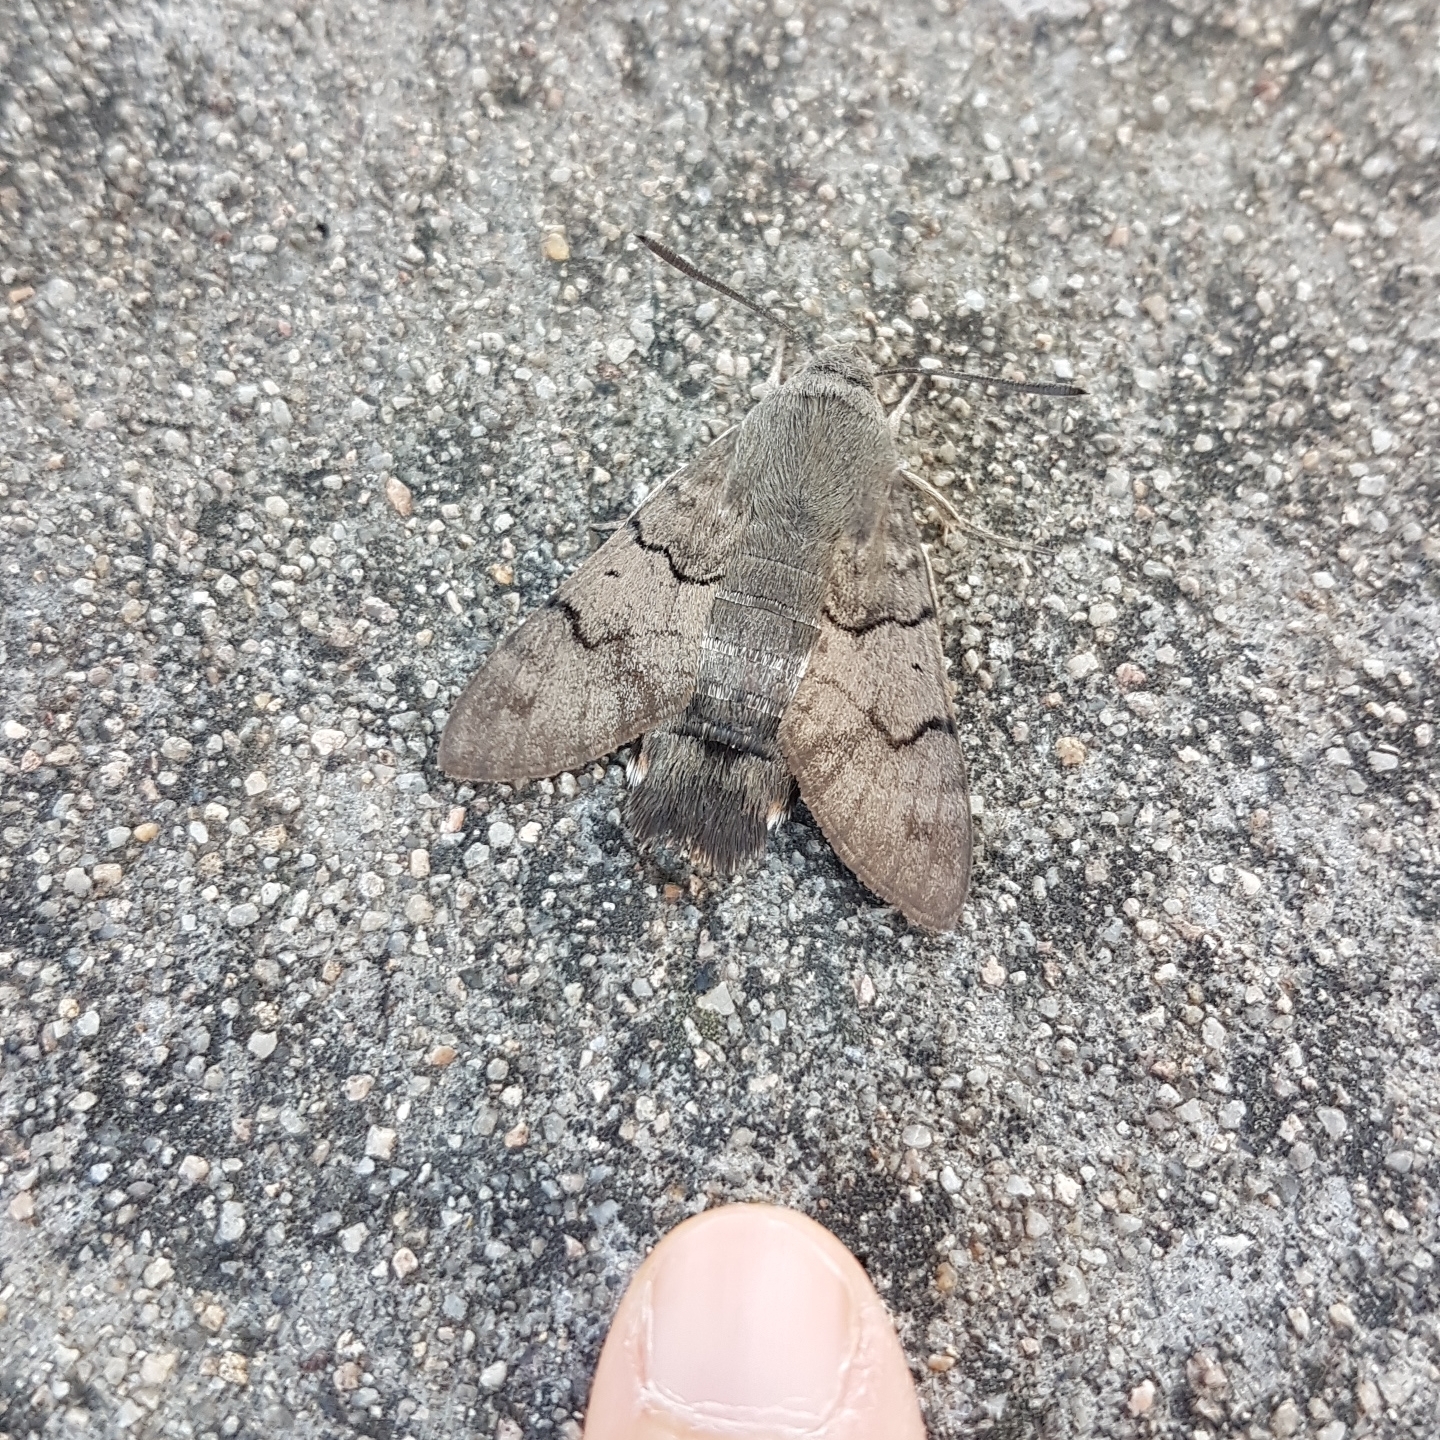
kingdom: Animalia
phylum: Arthropoda
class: Insecta
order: Lepidoptera
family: Sphingidae
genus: Macroglossum
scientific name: Macroglossum stellatarum
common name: Humming-bird hawk-moth
